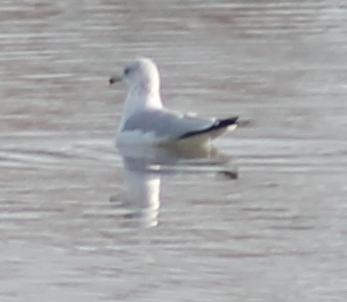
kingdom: Animalia
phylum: Chordata
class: Aves
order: Charadriiformes
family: Laridae
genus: Larus
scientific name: Larus delawarensis
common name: Ring-billed gull
